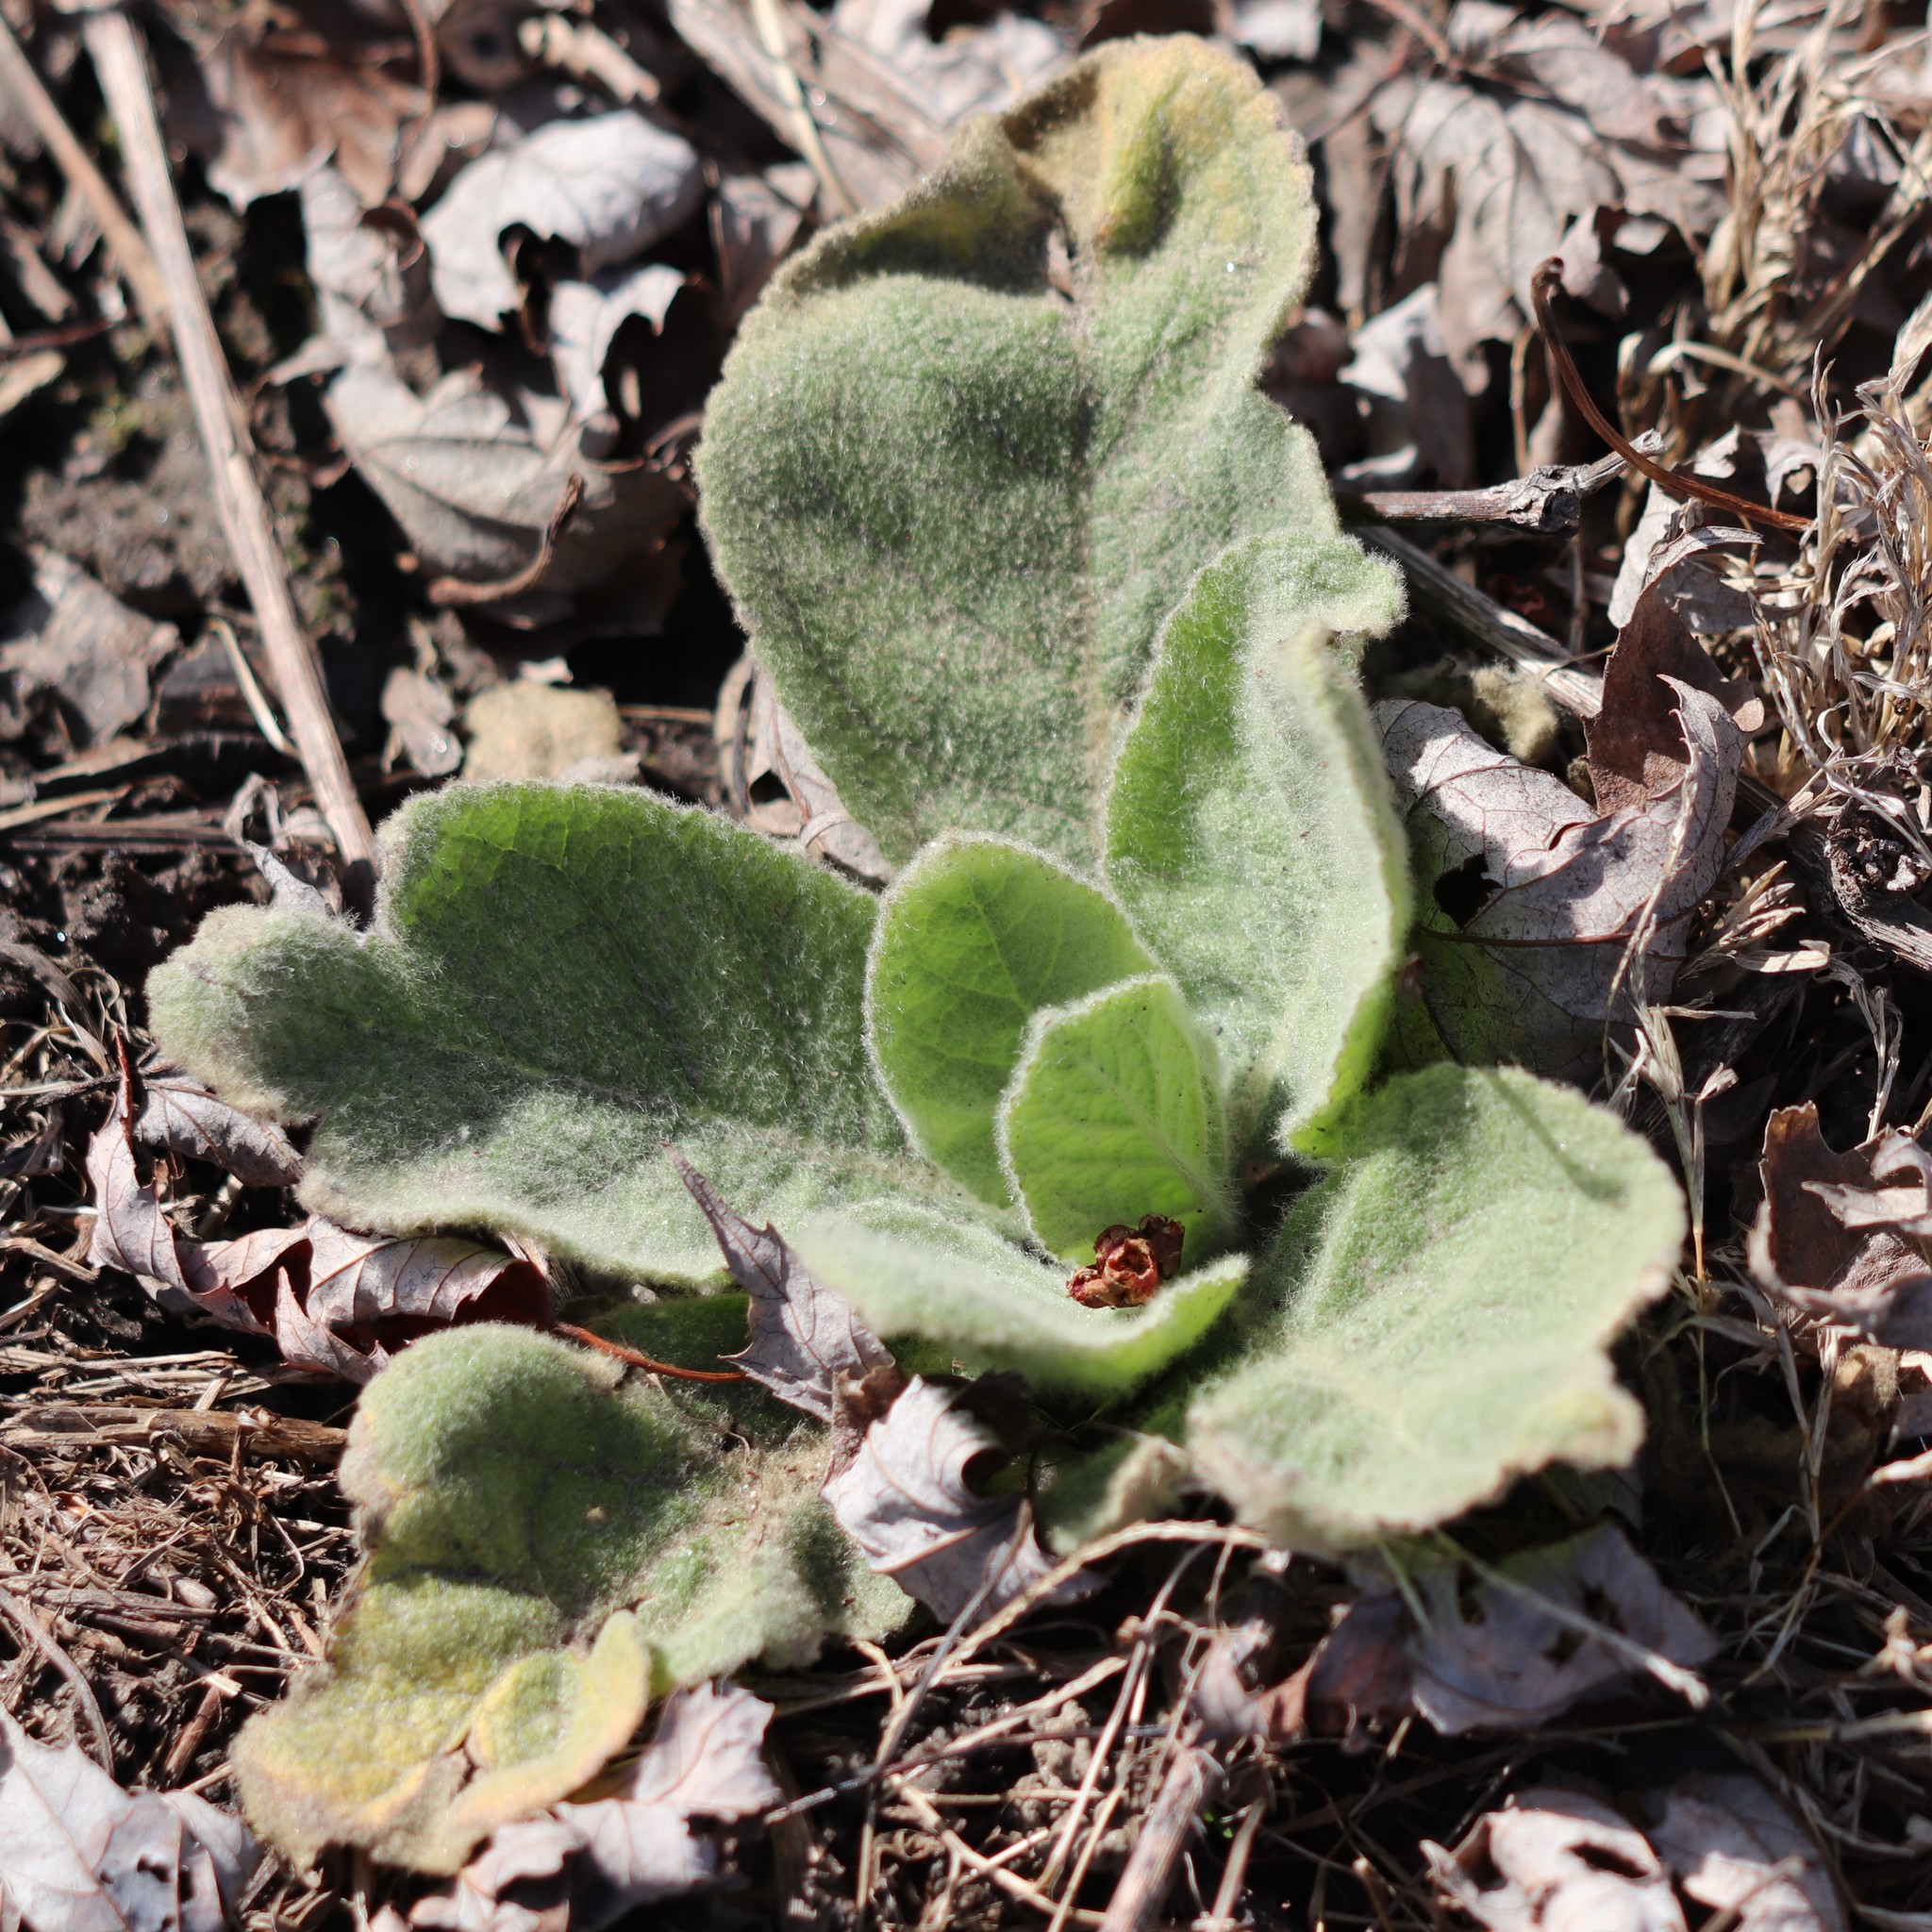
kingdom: Plantae
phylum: Tracheophyta
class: Magnoliopsida
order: Lamiales
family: Scrophulariaceae
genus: Verbascum
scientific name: Verbascum thapsus
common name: Common mullein
